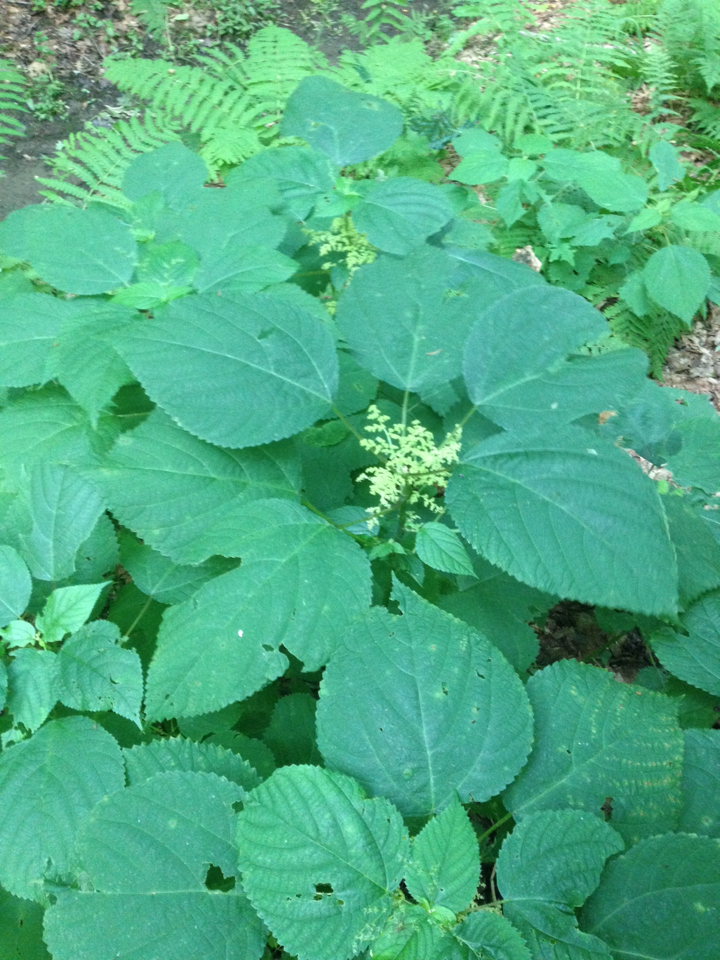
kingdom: Plantae
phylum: Tracheophyta
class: Magnoliopsida
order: Rosales
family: Urticaceae
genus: Laportea
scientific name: Laportea canadensis
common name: Canada nettle
